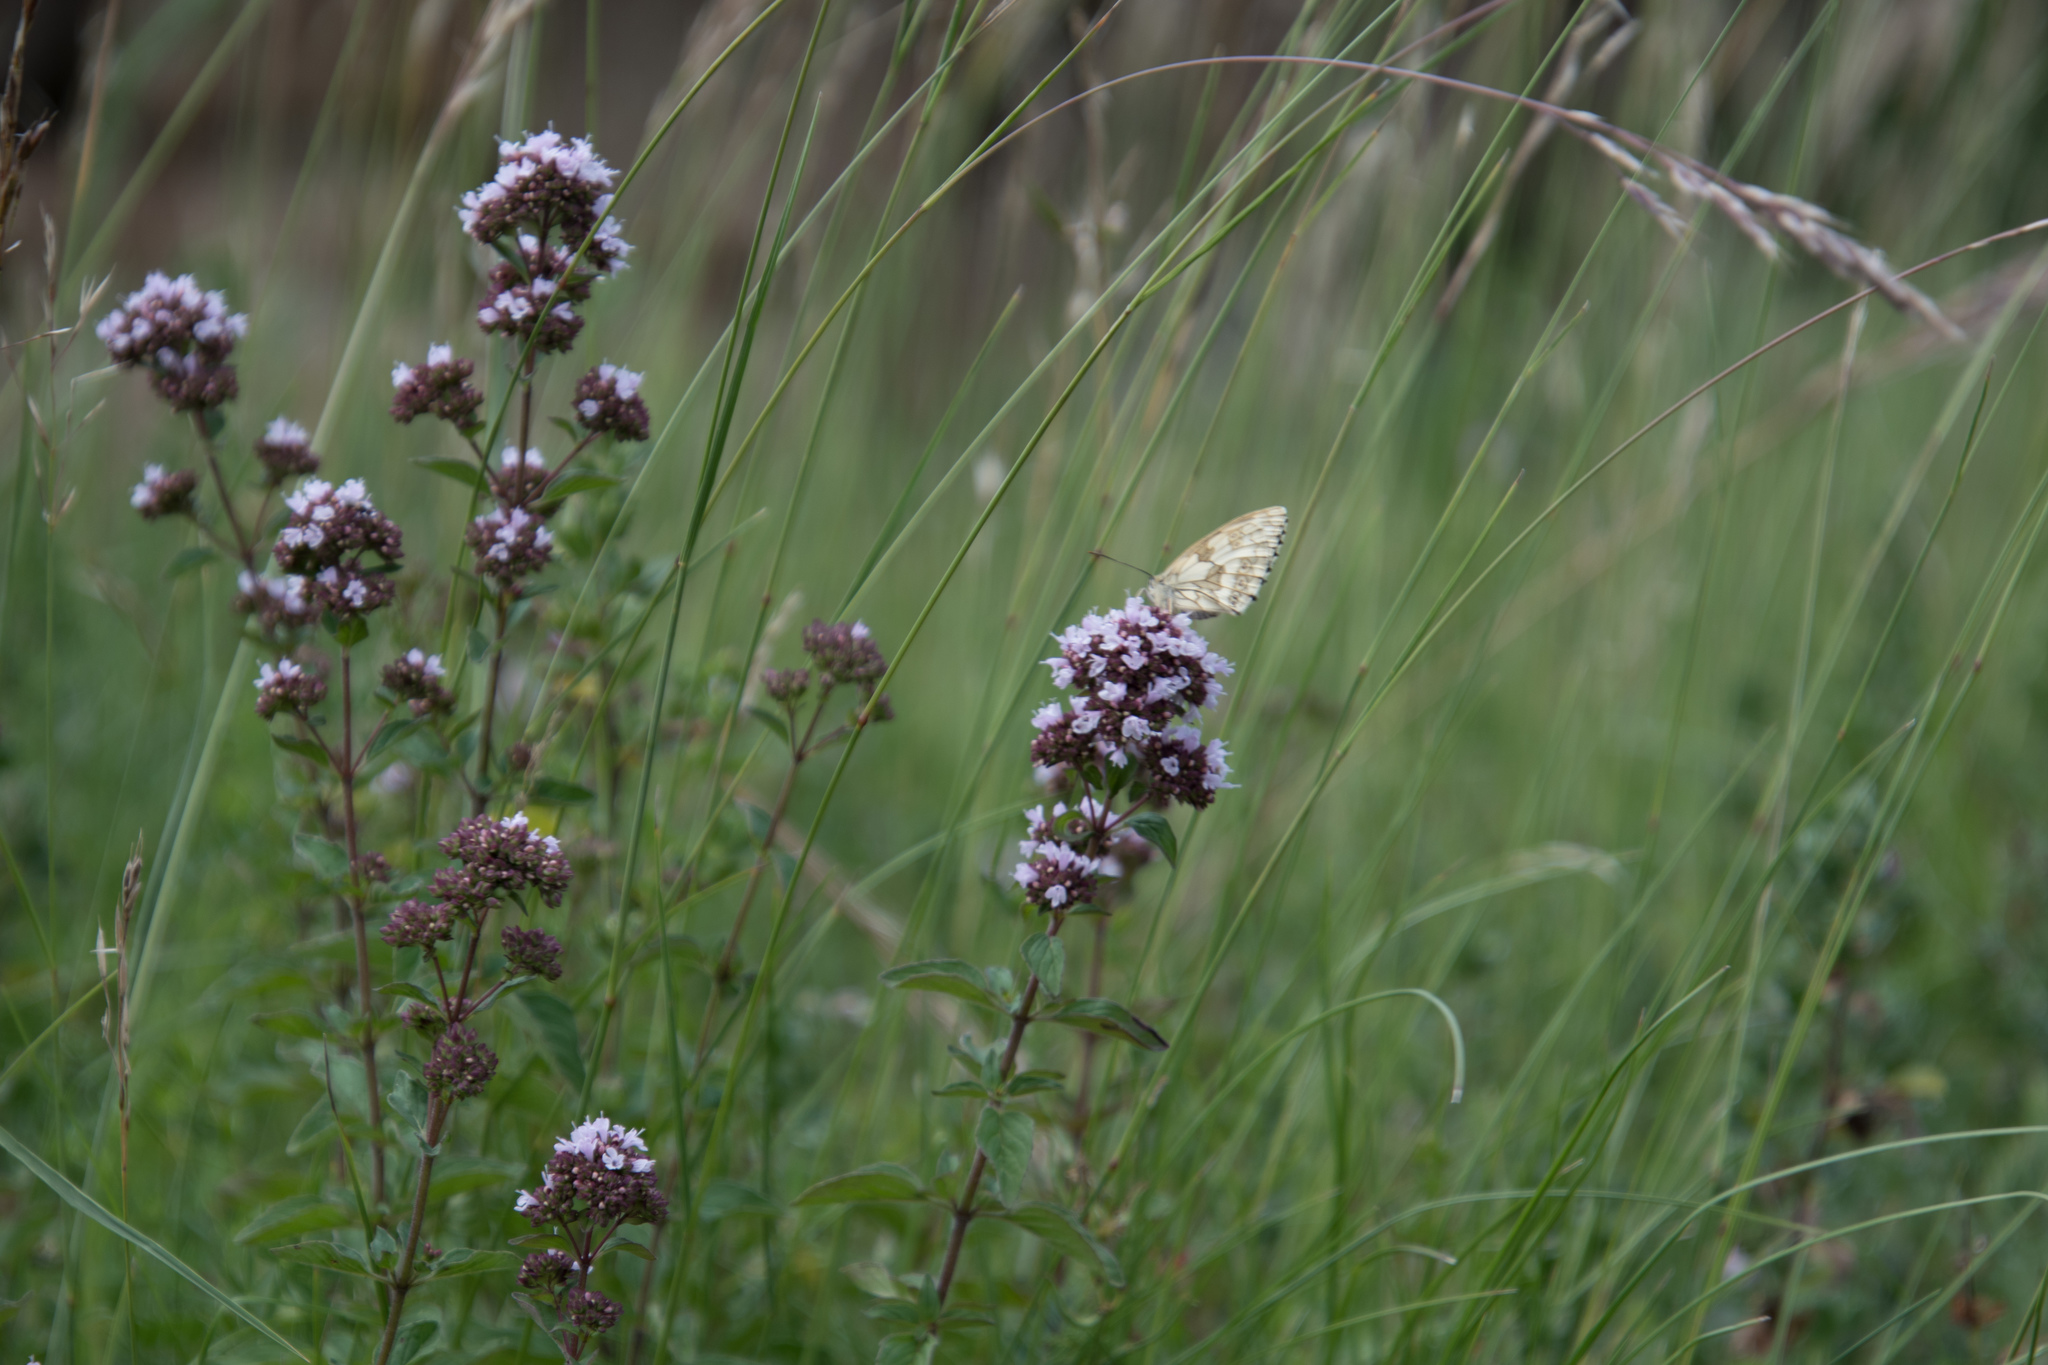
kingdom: Plantae
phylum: Tracheophyta
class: Magnoliopsida
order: Lamiales
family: Lamiaceae
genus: Origanum
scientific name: Origanum vulgare
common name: Wild marjoram
